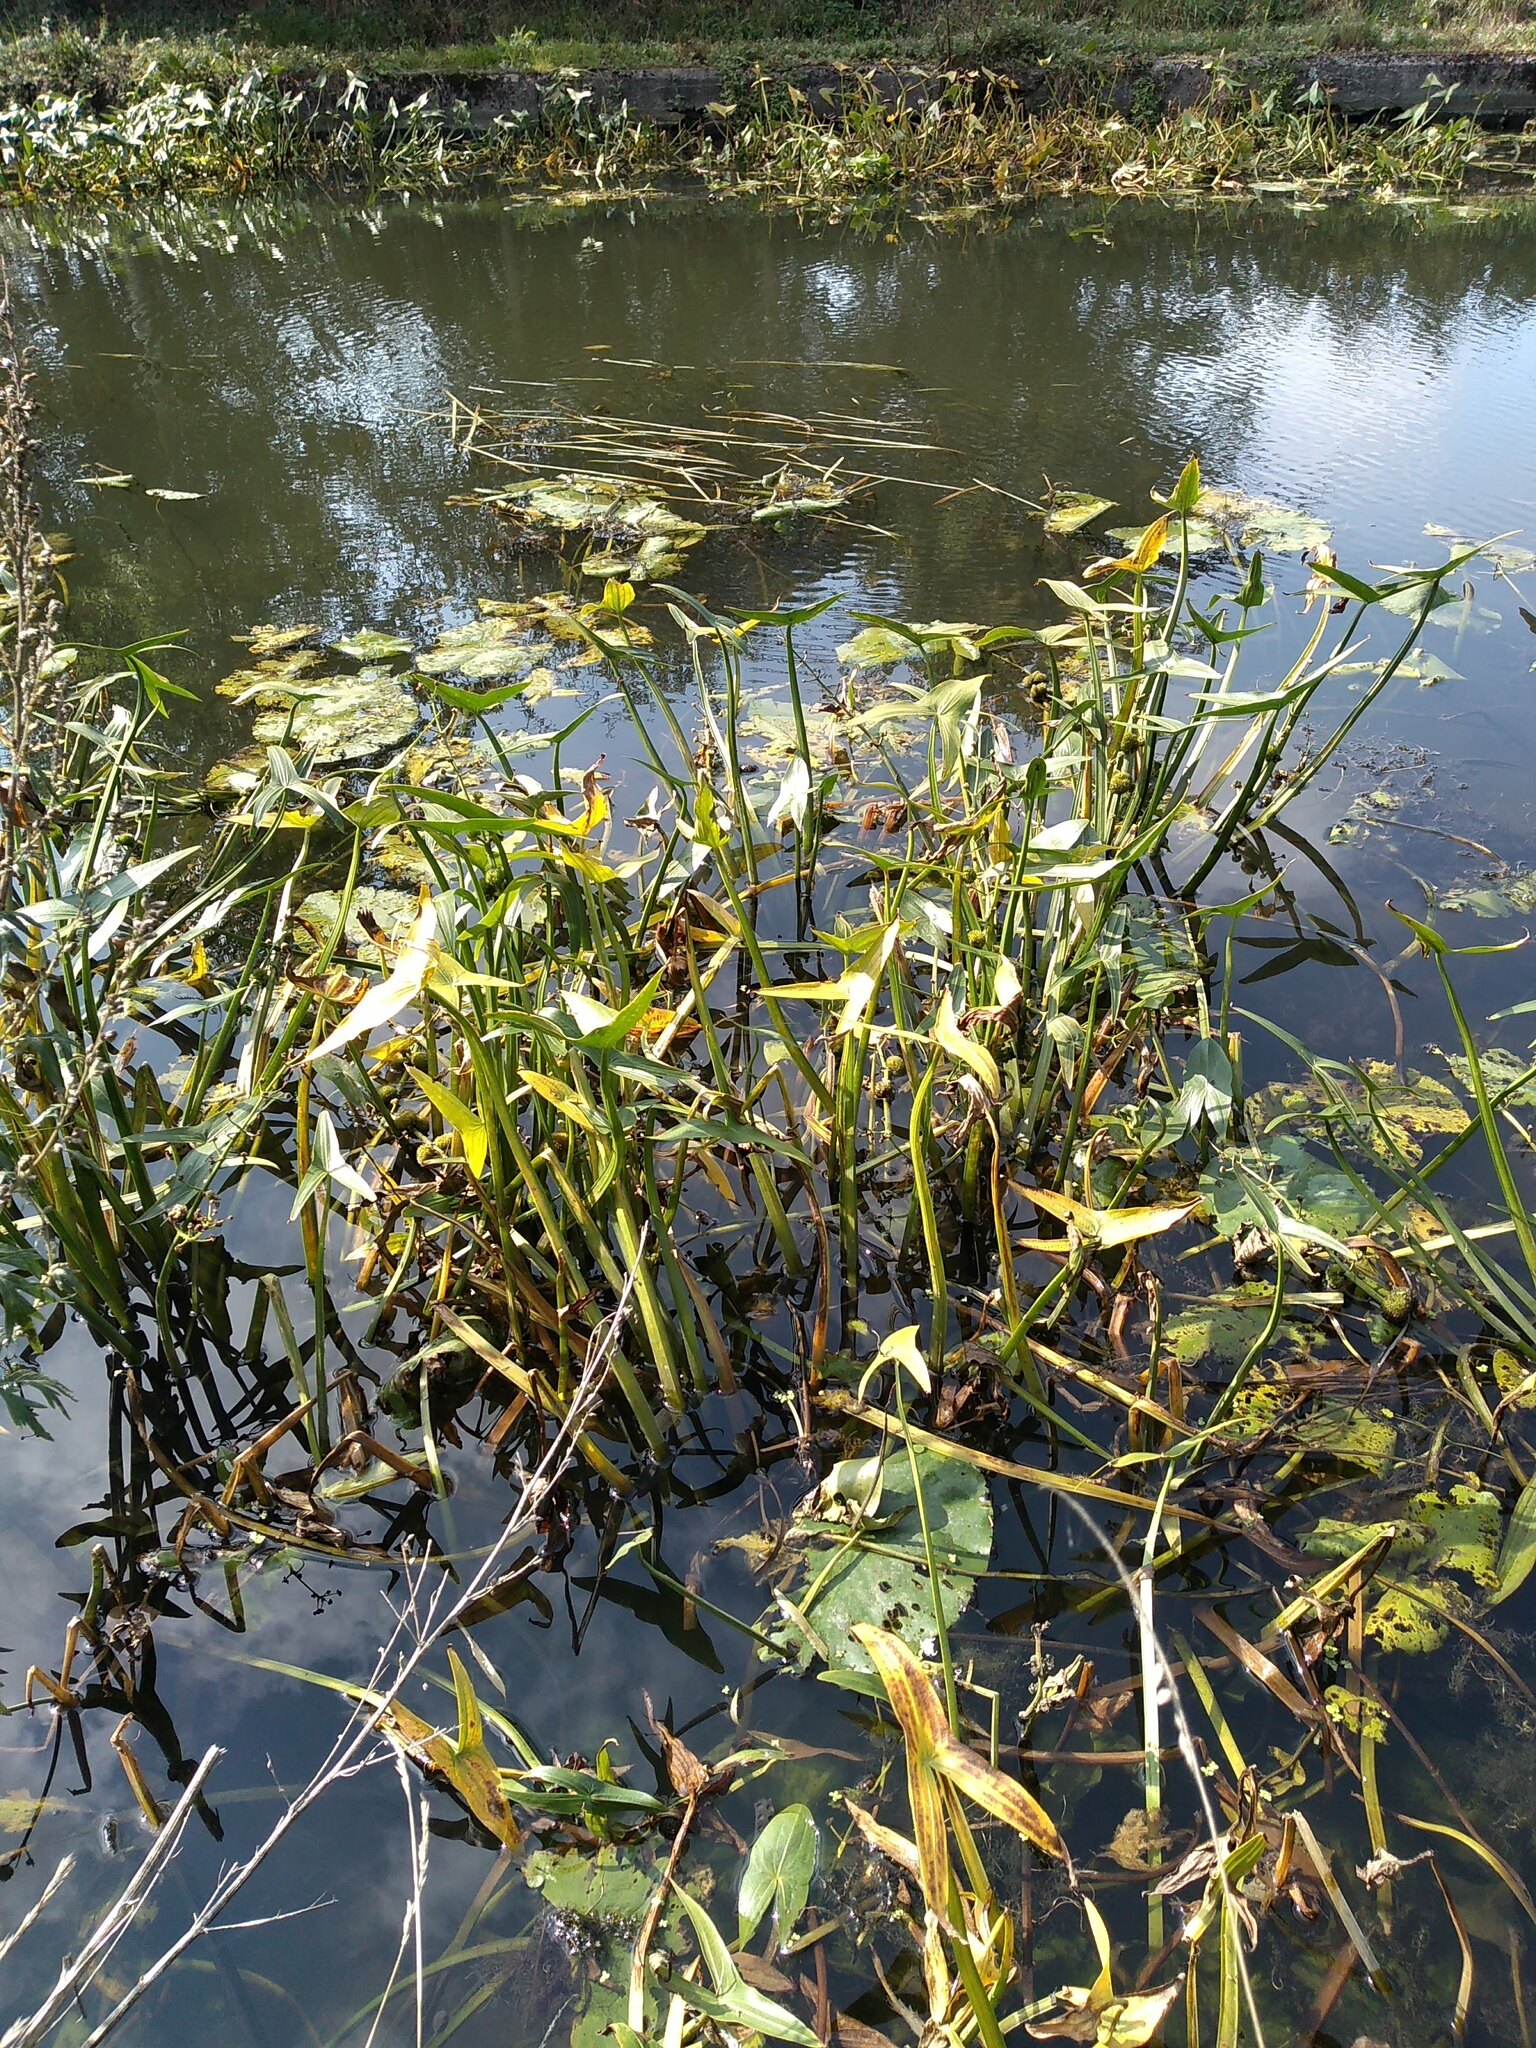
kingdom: Plantae
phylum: Tracheophyta
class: Liliopsida
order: Alismatales
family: Alismataceae
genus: Sagittaria
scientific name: Sagittaria sagittifolia
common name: Arrowhead
